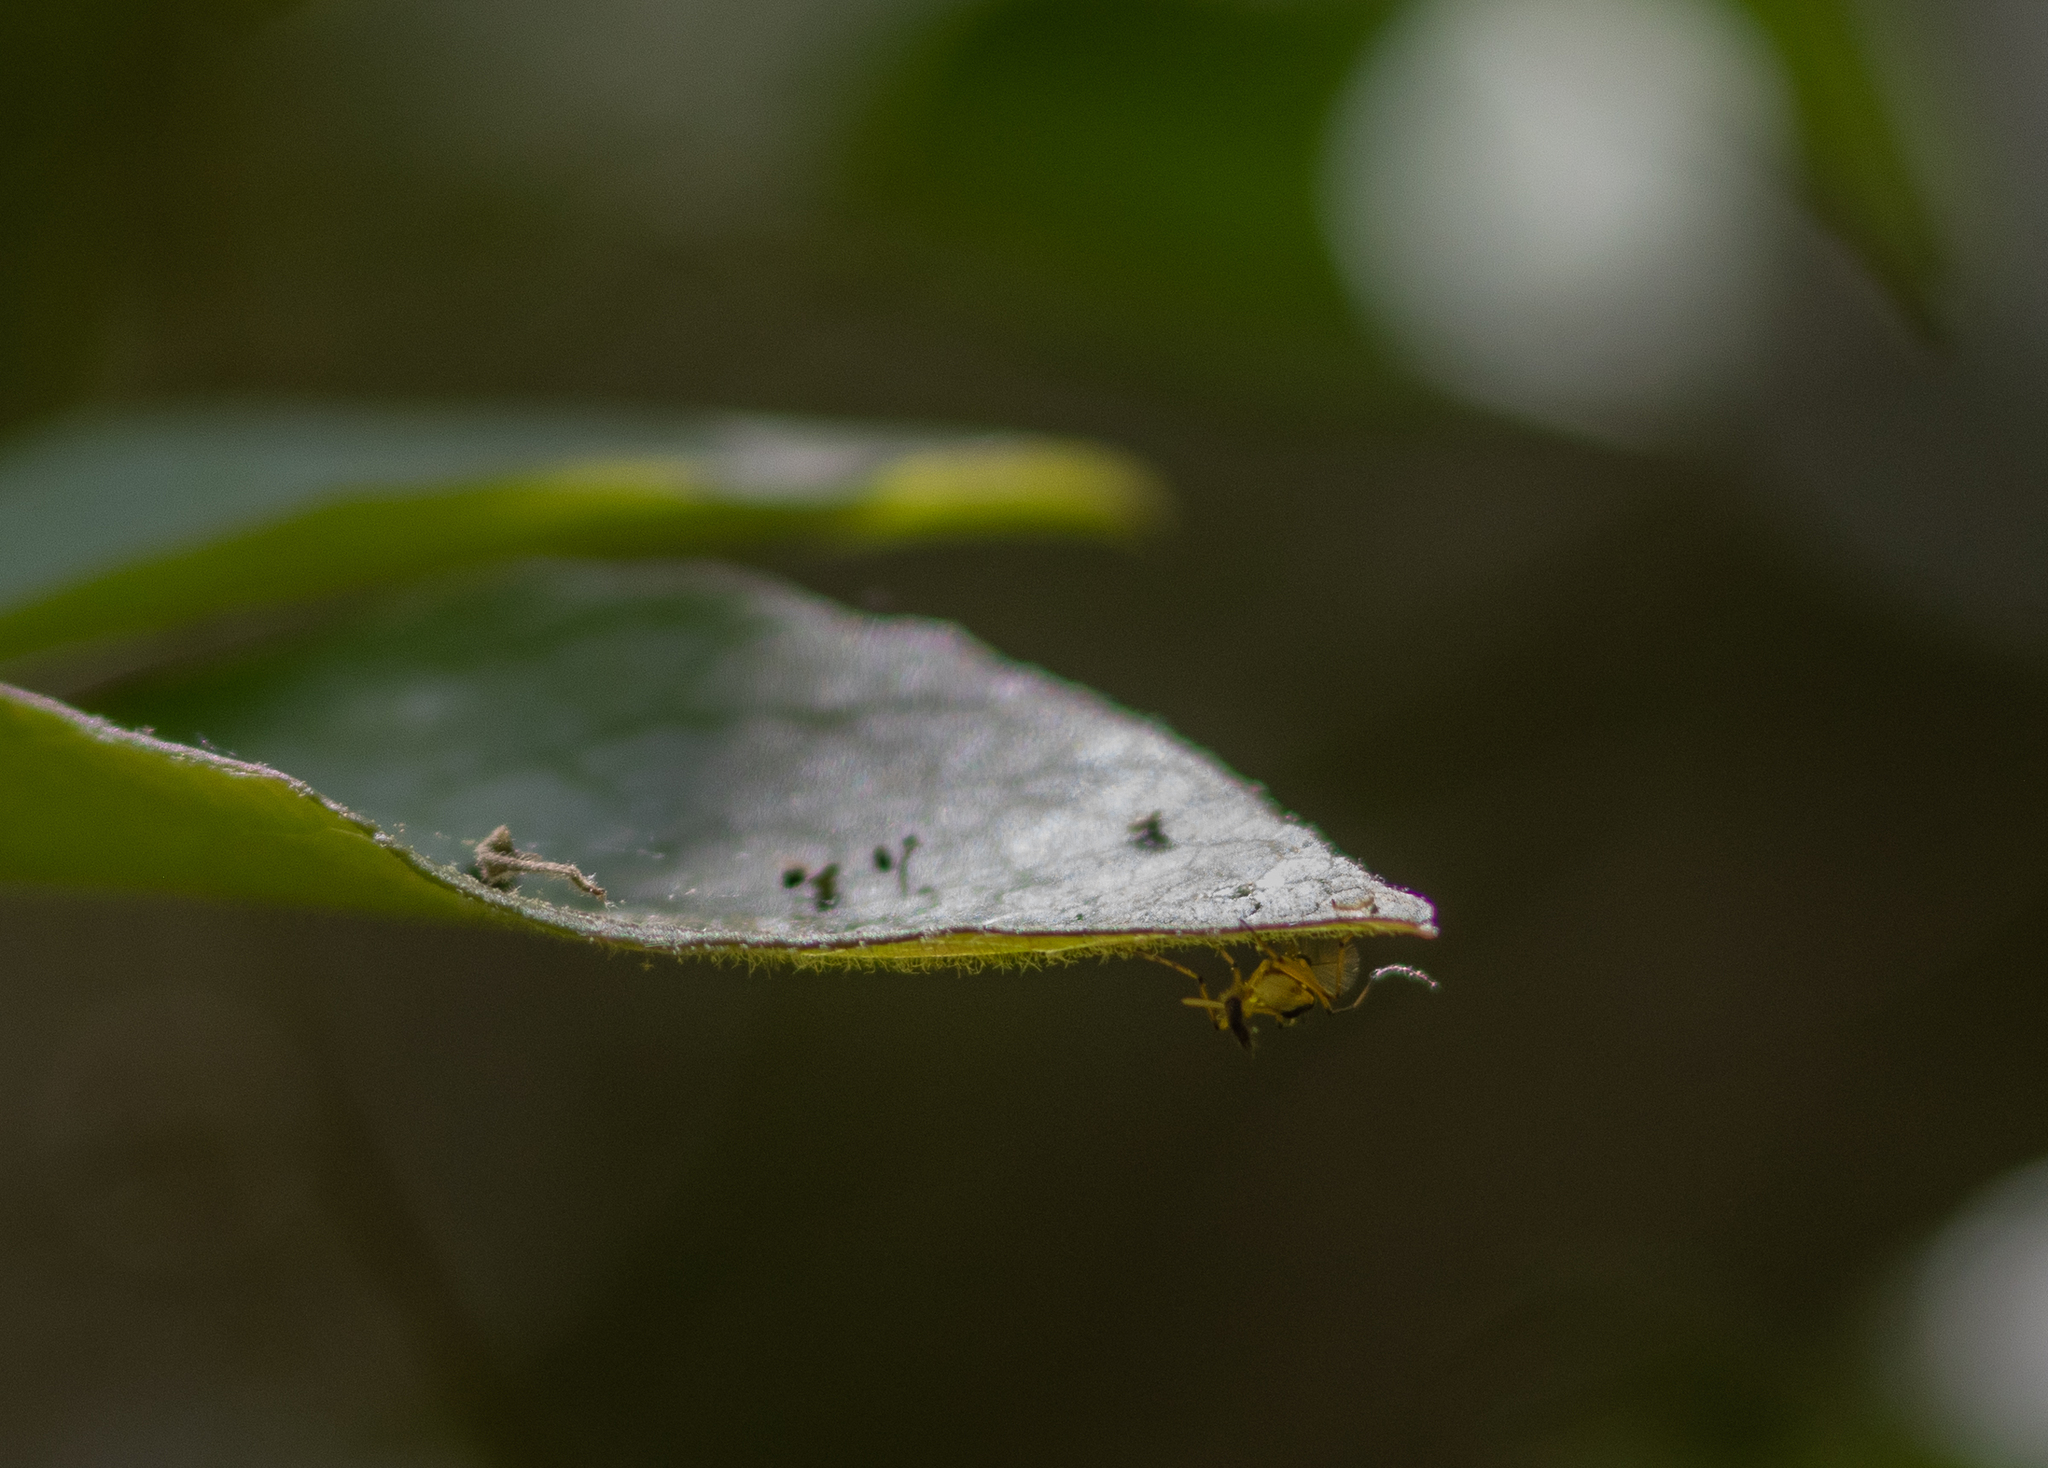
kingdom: Animalia
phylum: Arthropoda
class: Insecta
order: Diptera
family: Chironomidae
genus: Demeijerea
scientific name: Demeijerea brachialis
